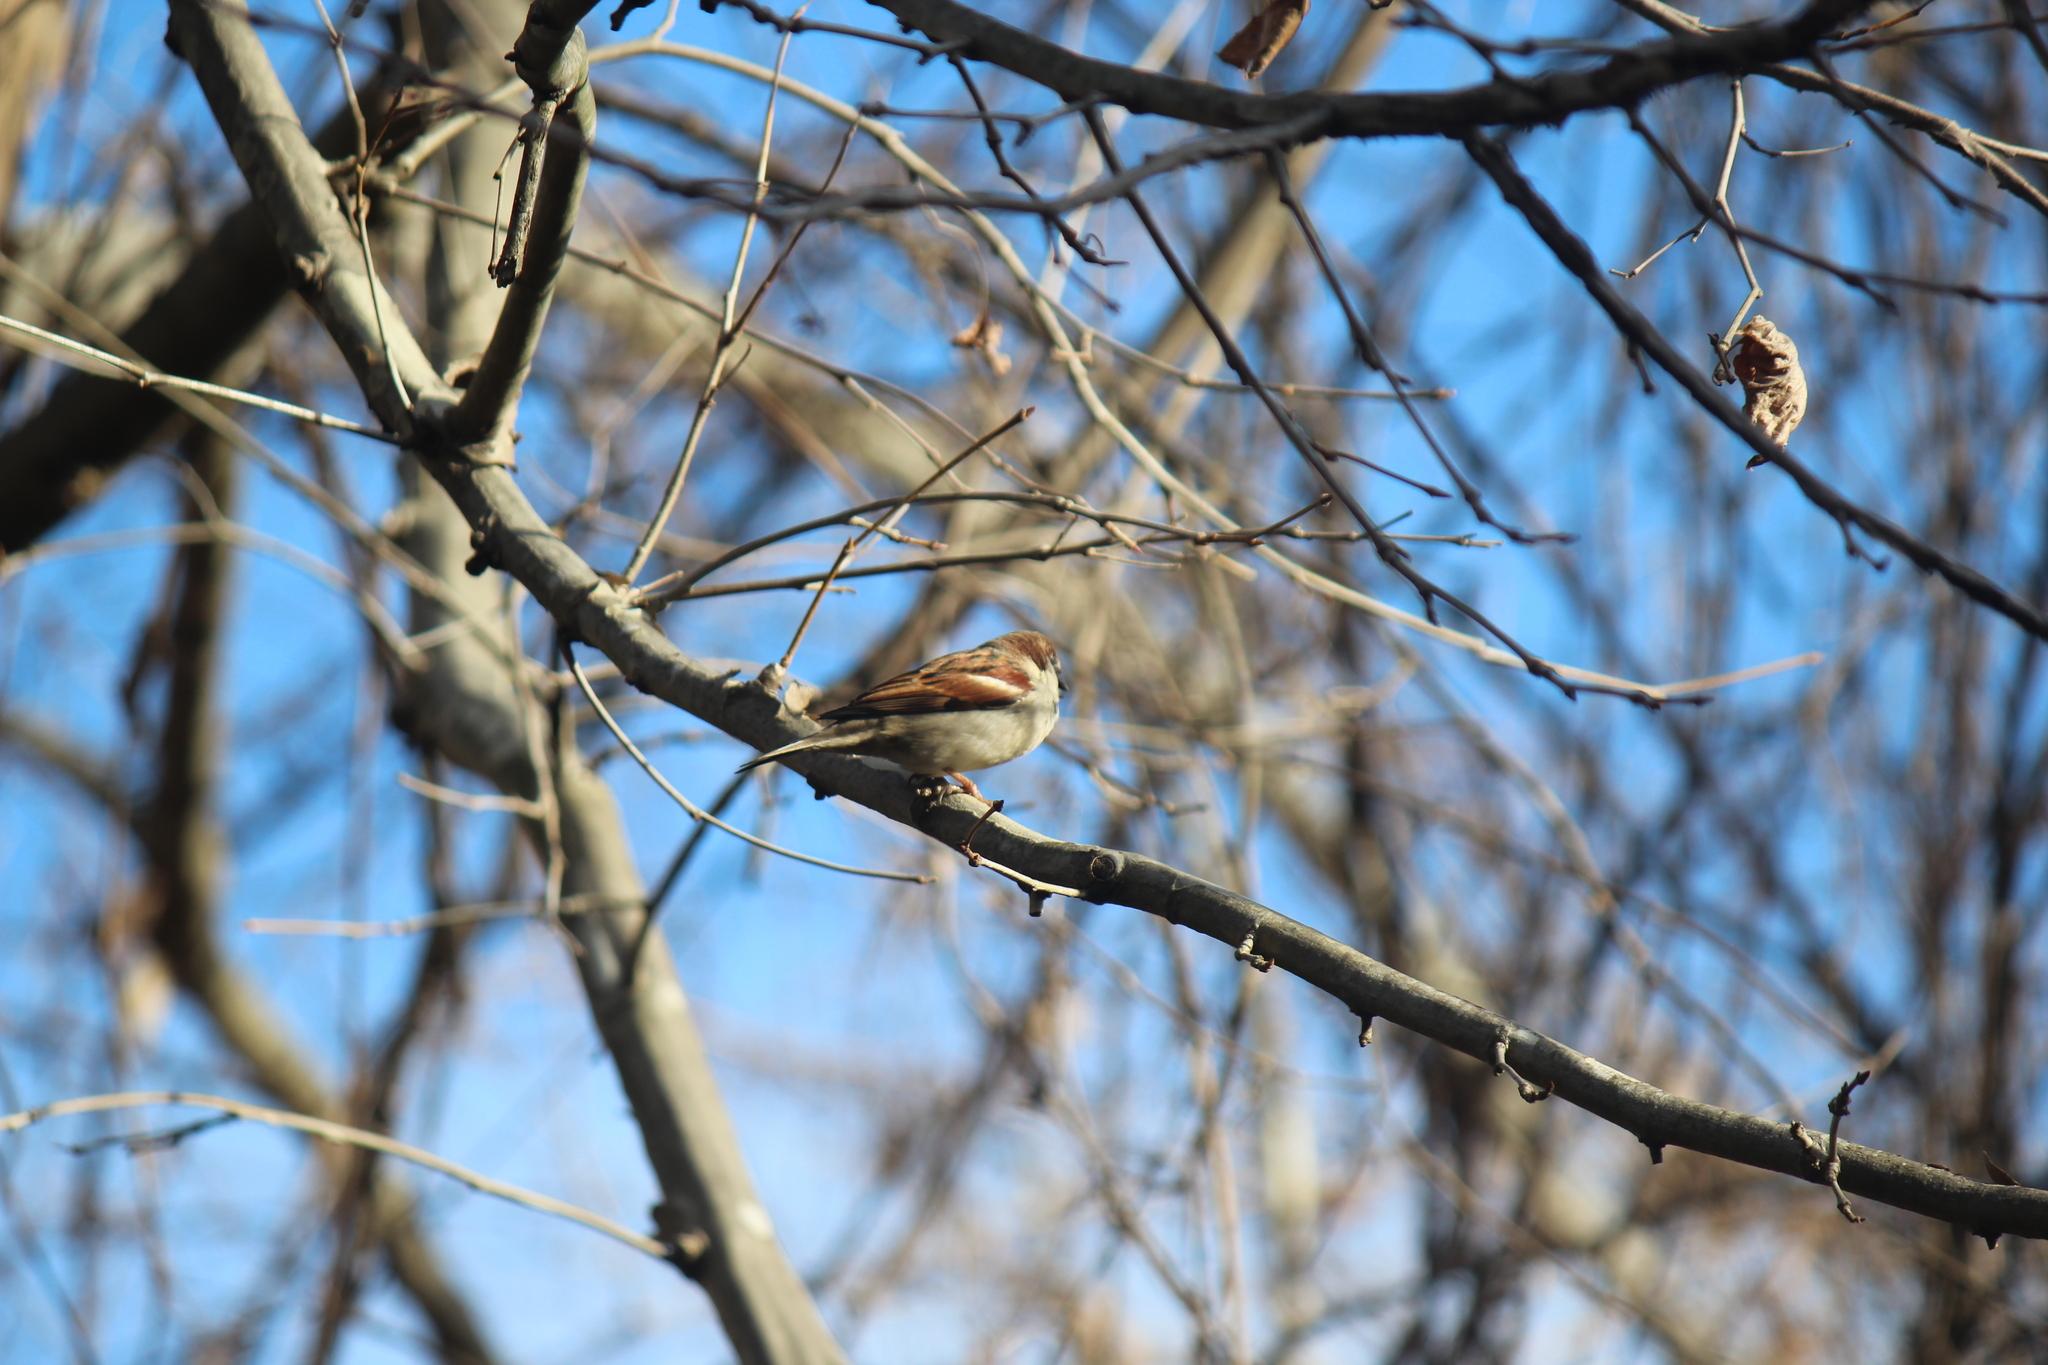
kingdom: Animalia
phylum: Chordata
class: Aves
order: Passeriformes
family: Passeridae
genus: Passer
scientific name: Passer domesticus
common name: House sparrow
